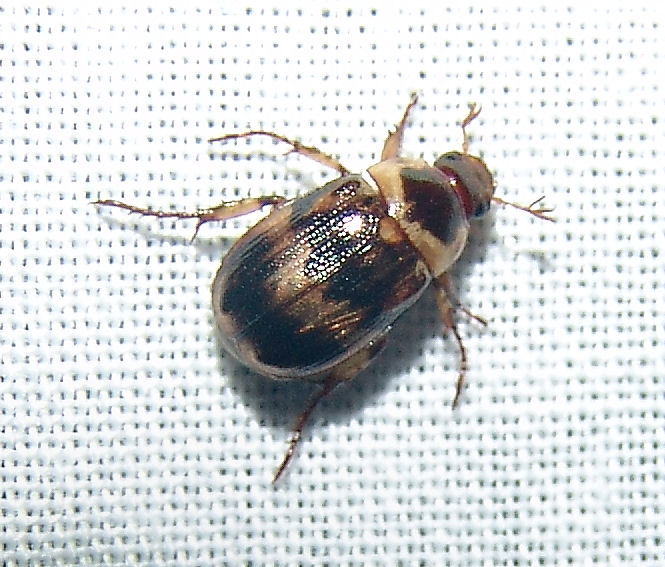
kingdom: Animalia
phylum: Arthropoda
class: Insecta
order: Coleoptera
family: Scarabaeidae
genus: Anomala
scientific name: Anomala innuba
